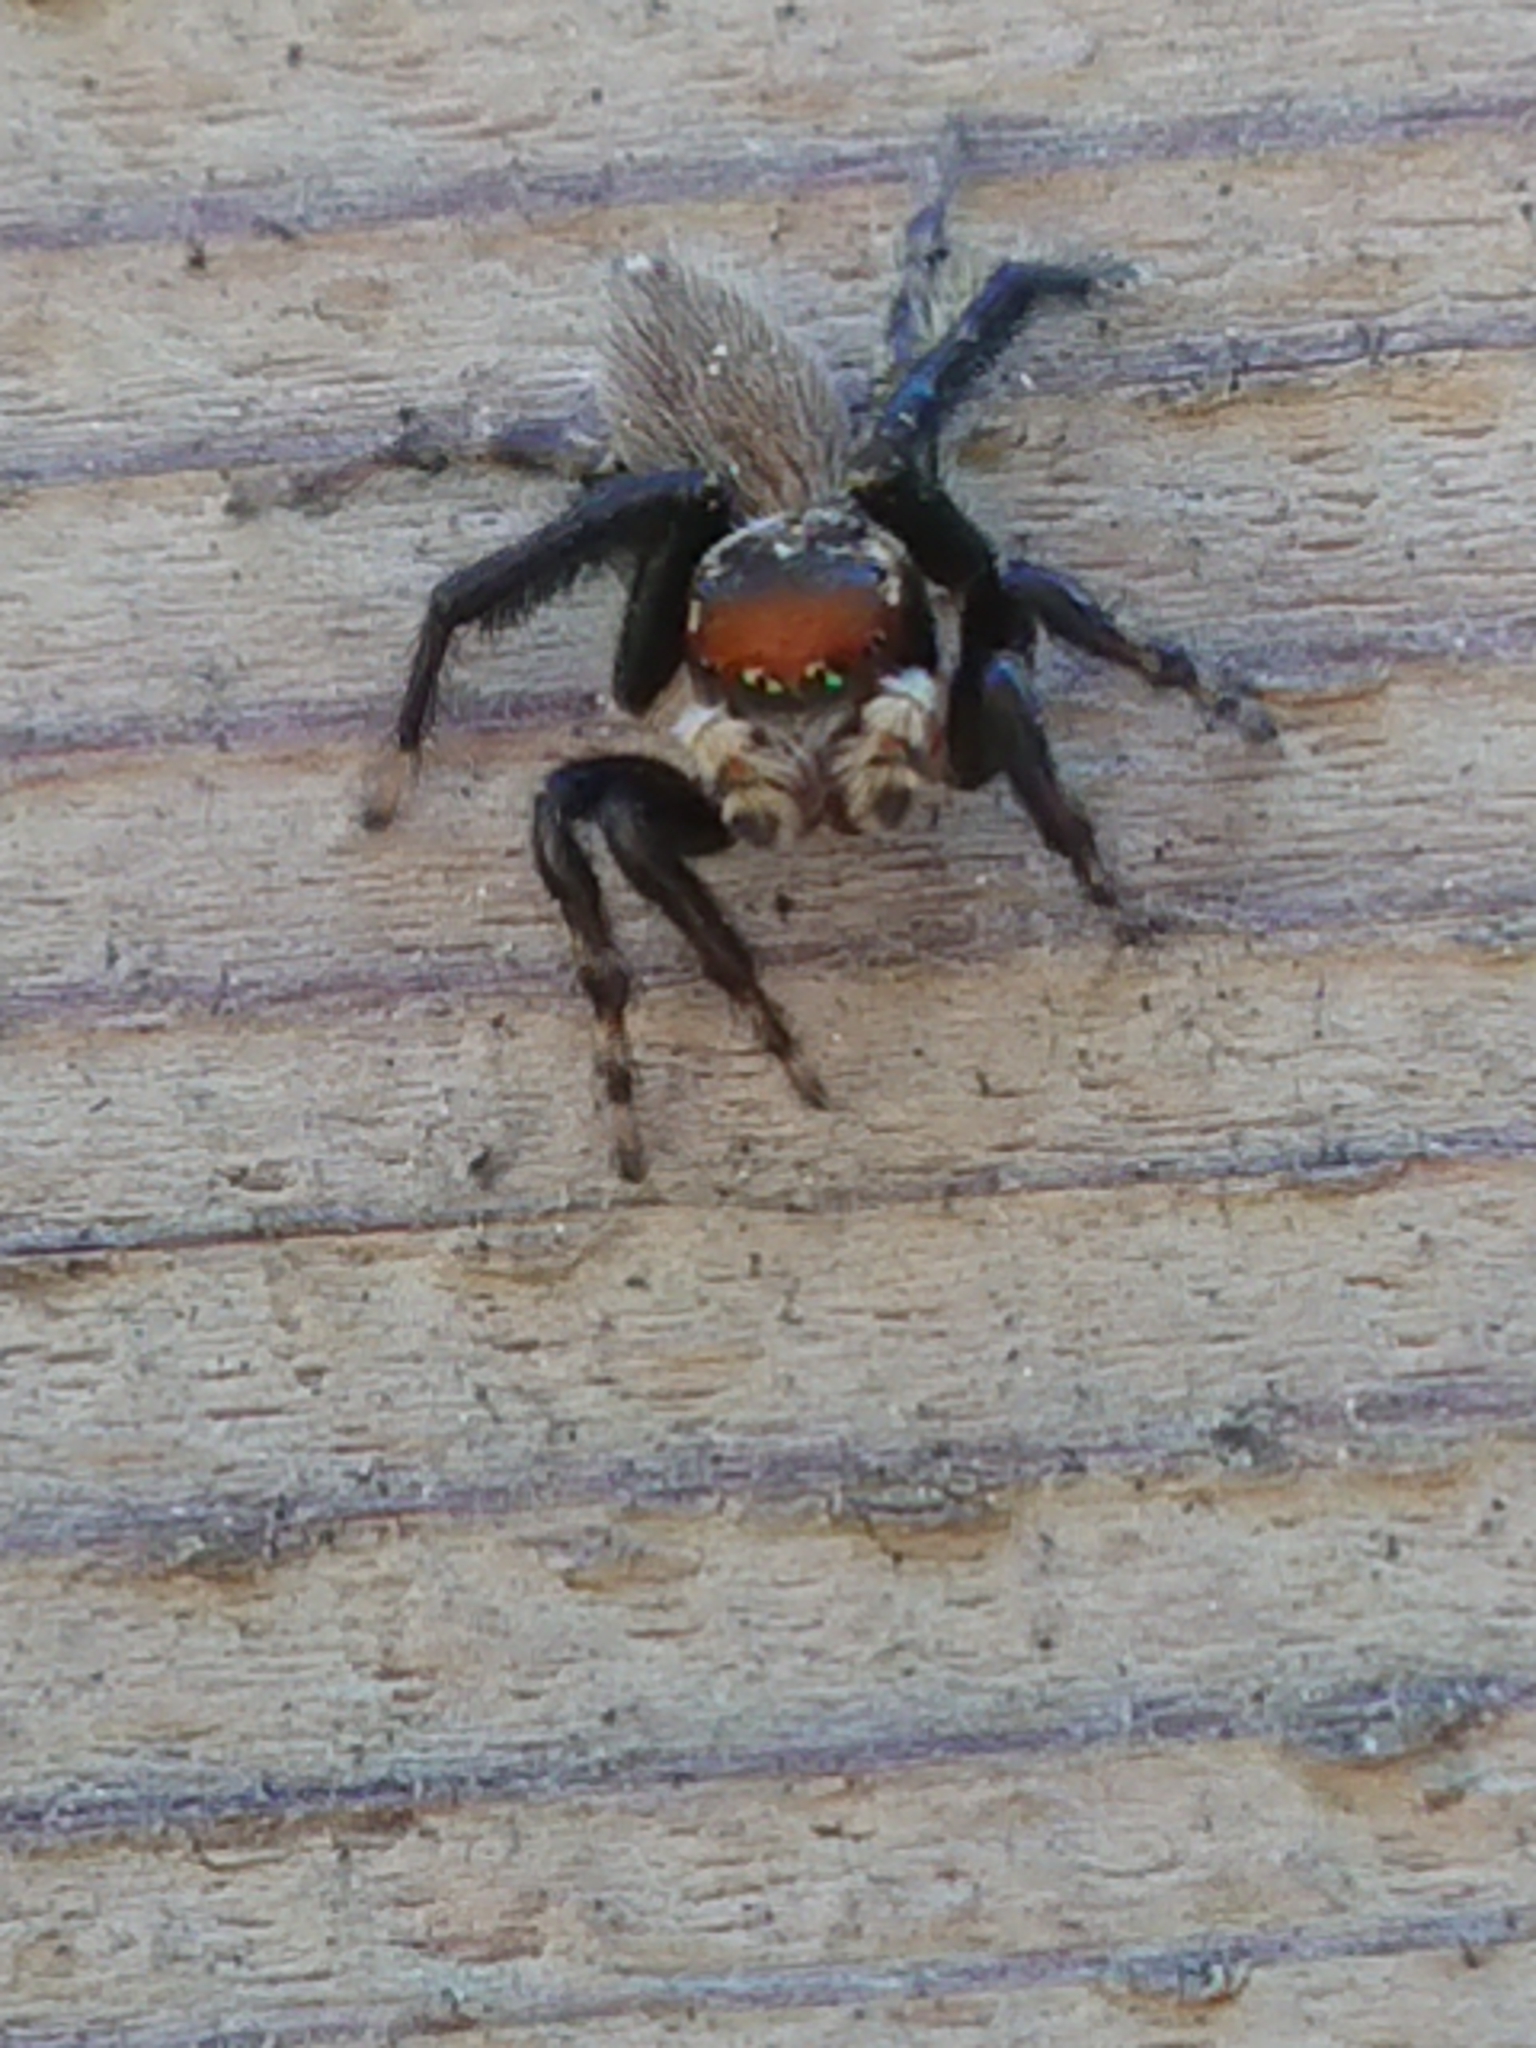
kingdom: Animalia
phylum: Arthropoda
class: Arachnida
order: Araneae
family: Salticidae
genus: Maratus
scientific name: Maratus griseus
